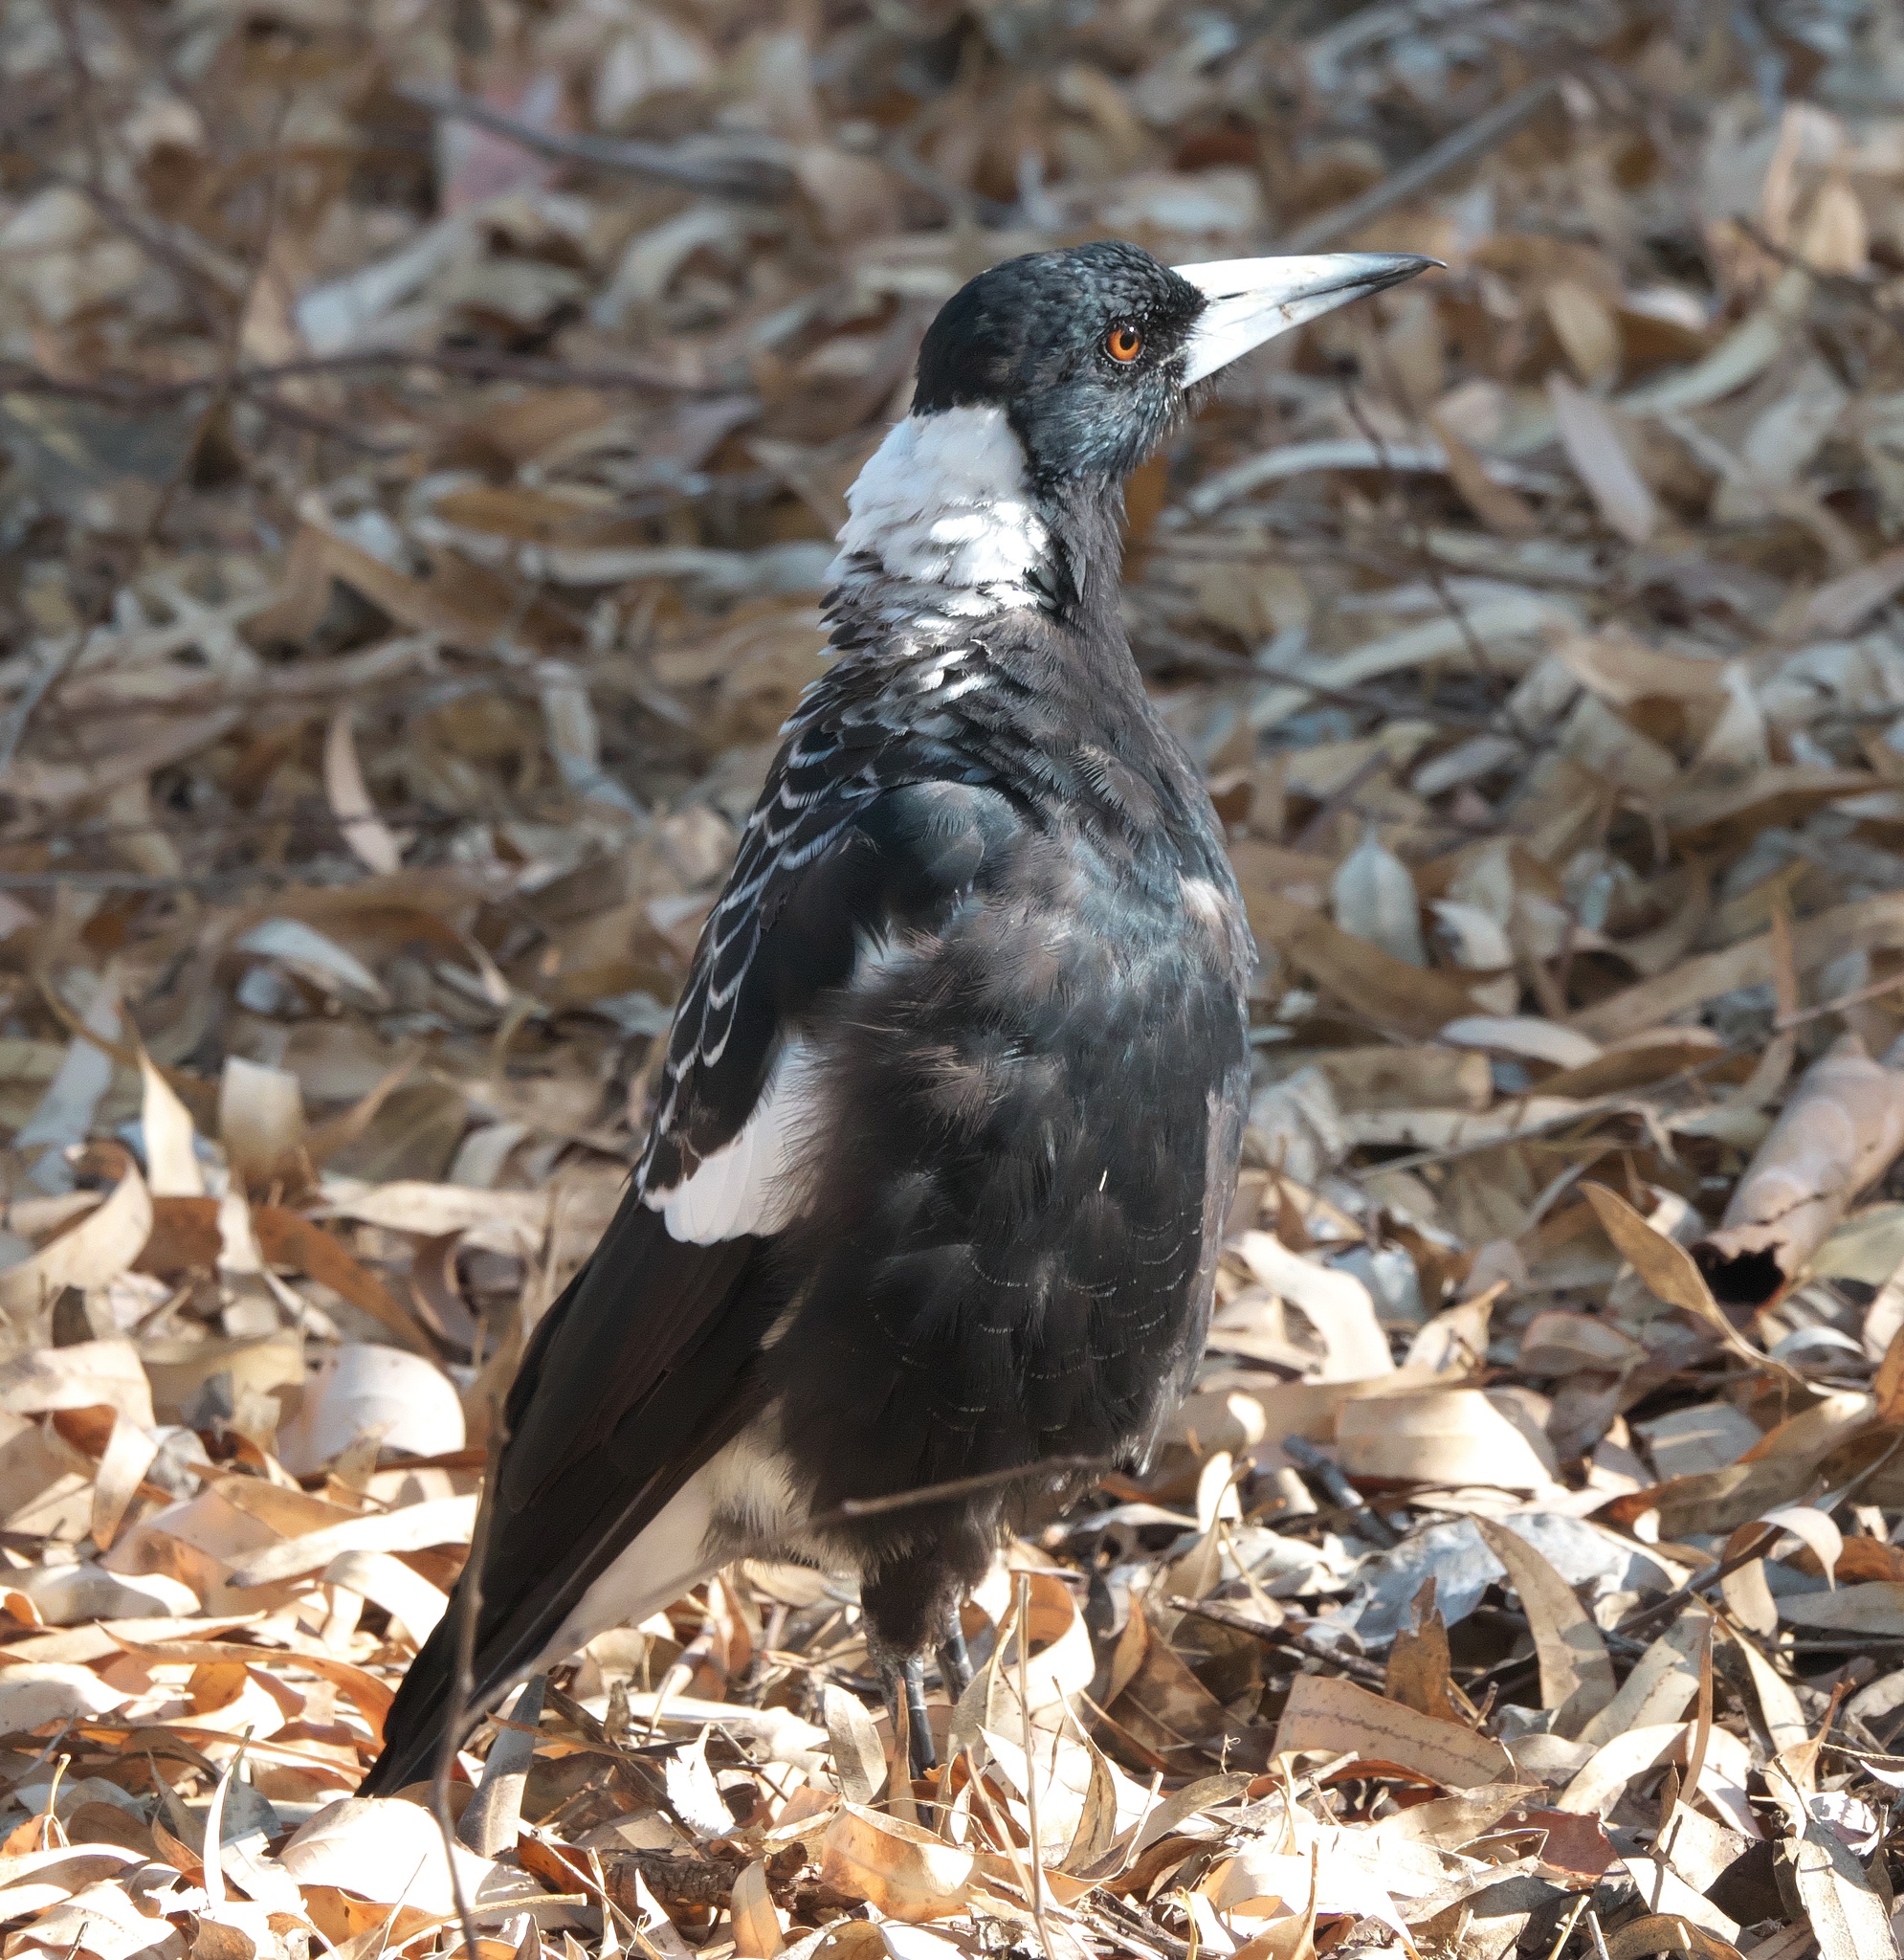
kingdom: Animalia
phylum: Chordata
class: Aves
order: Passeriformes
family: Cracticidae
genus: Gymnorhina
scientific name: Gymnorhina tibicen
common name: Australian magpie
